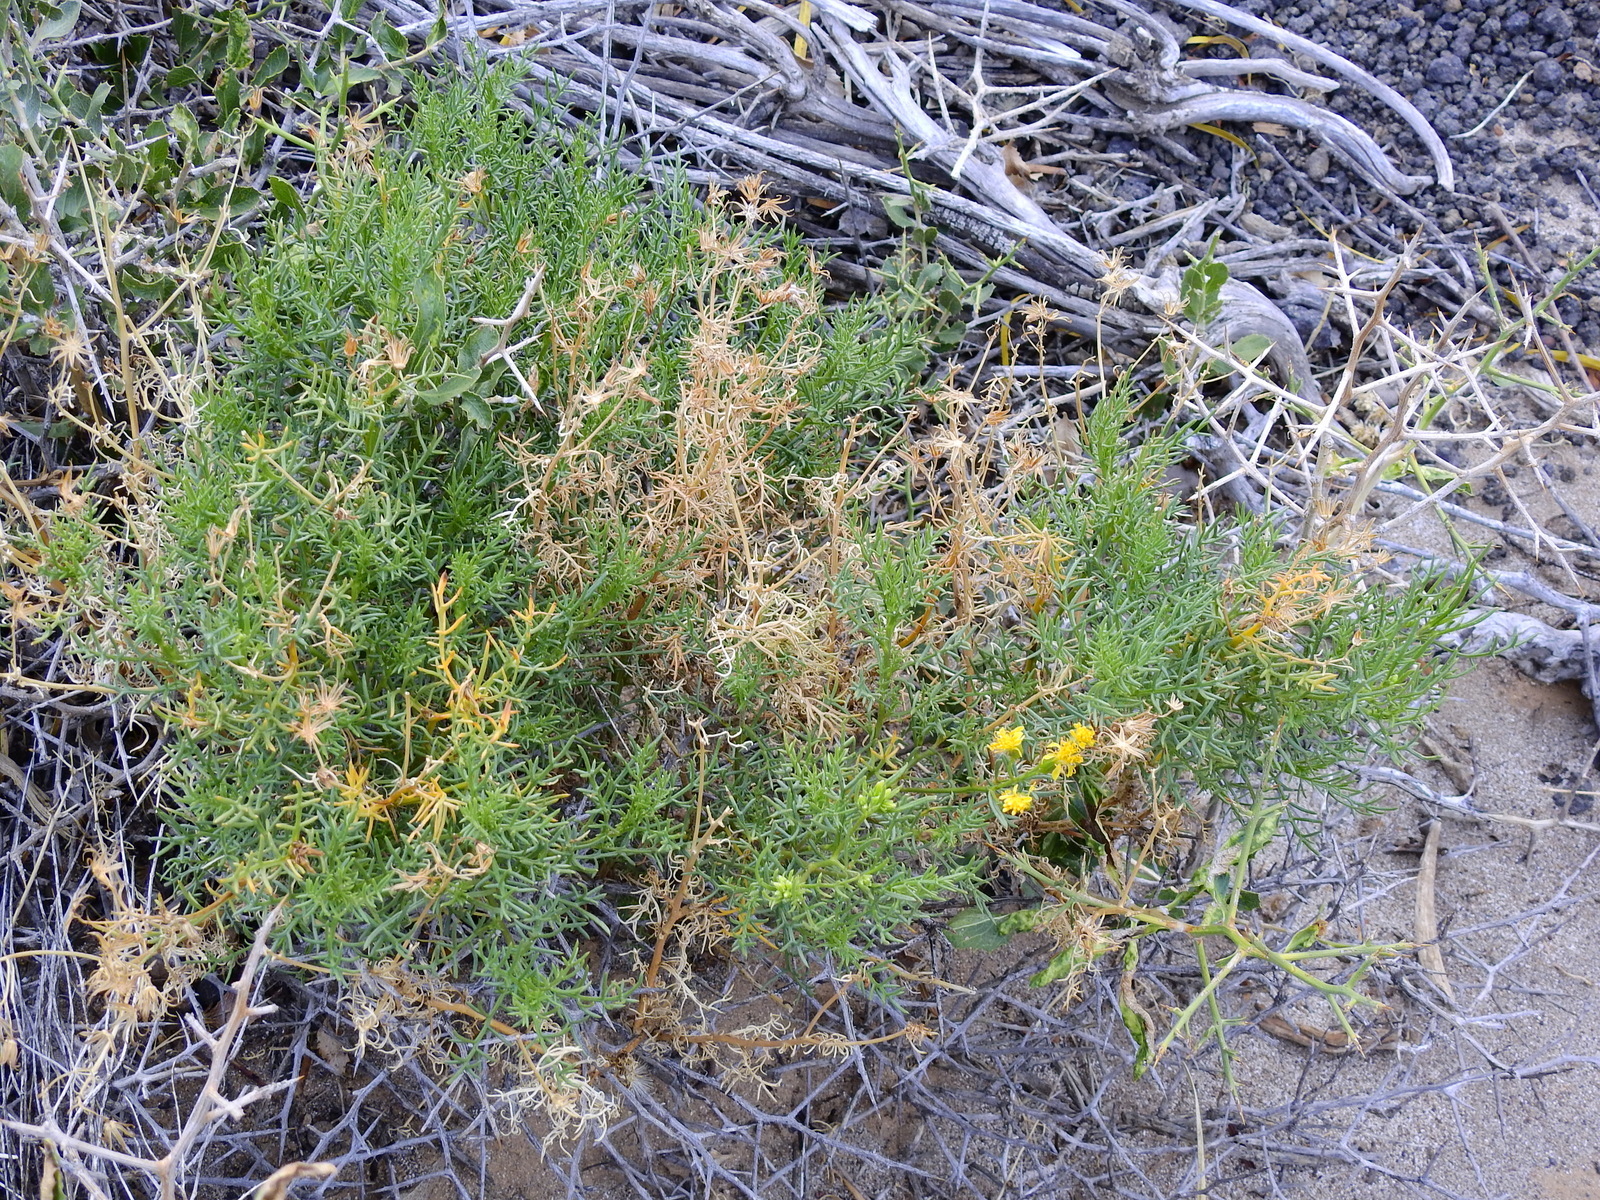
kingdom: Plantae
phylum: Tracheophyta
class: Magnoliopsida
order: Asterales
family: Asteraceae
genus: Senecio
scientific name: Senecio subulatus
